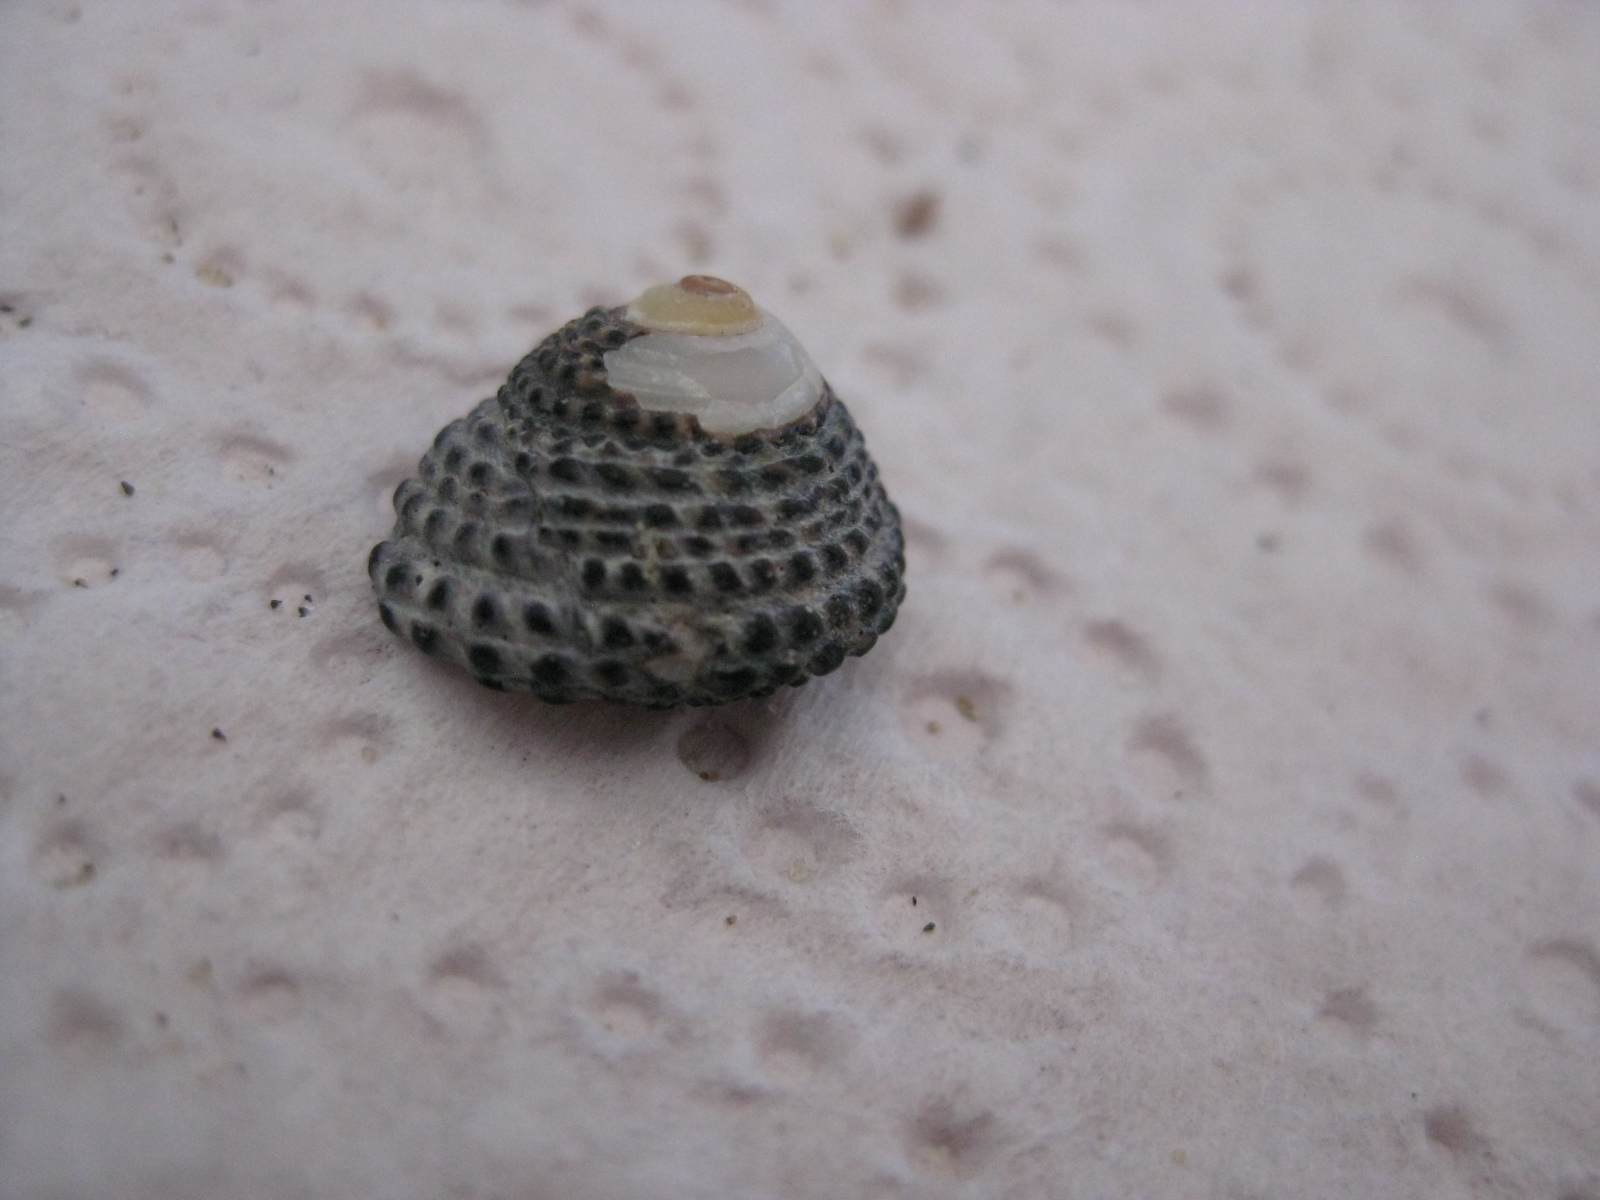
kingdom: Animalia
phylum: Mollusca
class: Gastropoda
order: Trochida
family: Trochidae
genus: Diloma
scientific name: Diloma bicanaliculatum
